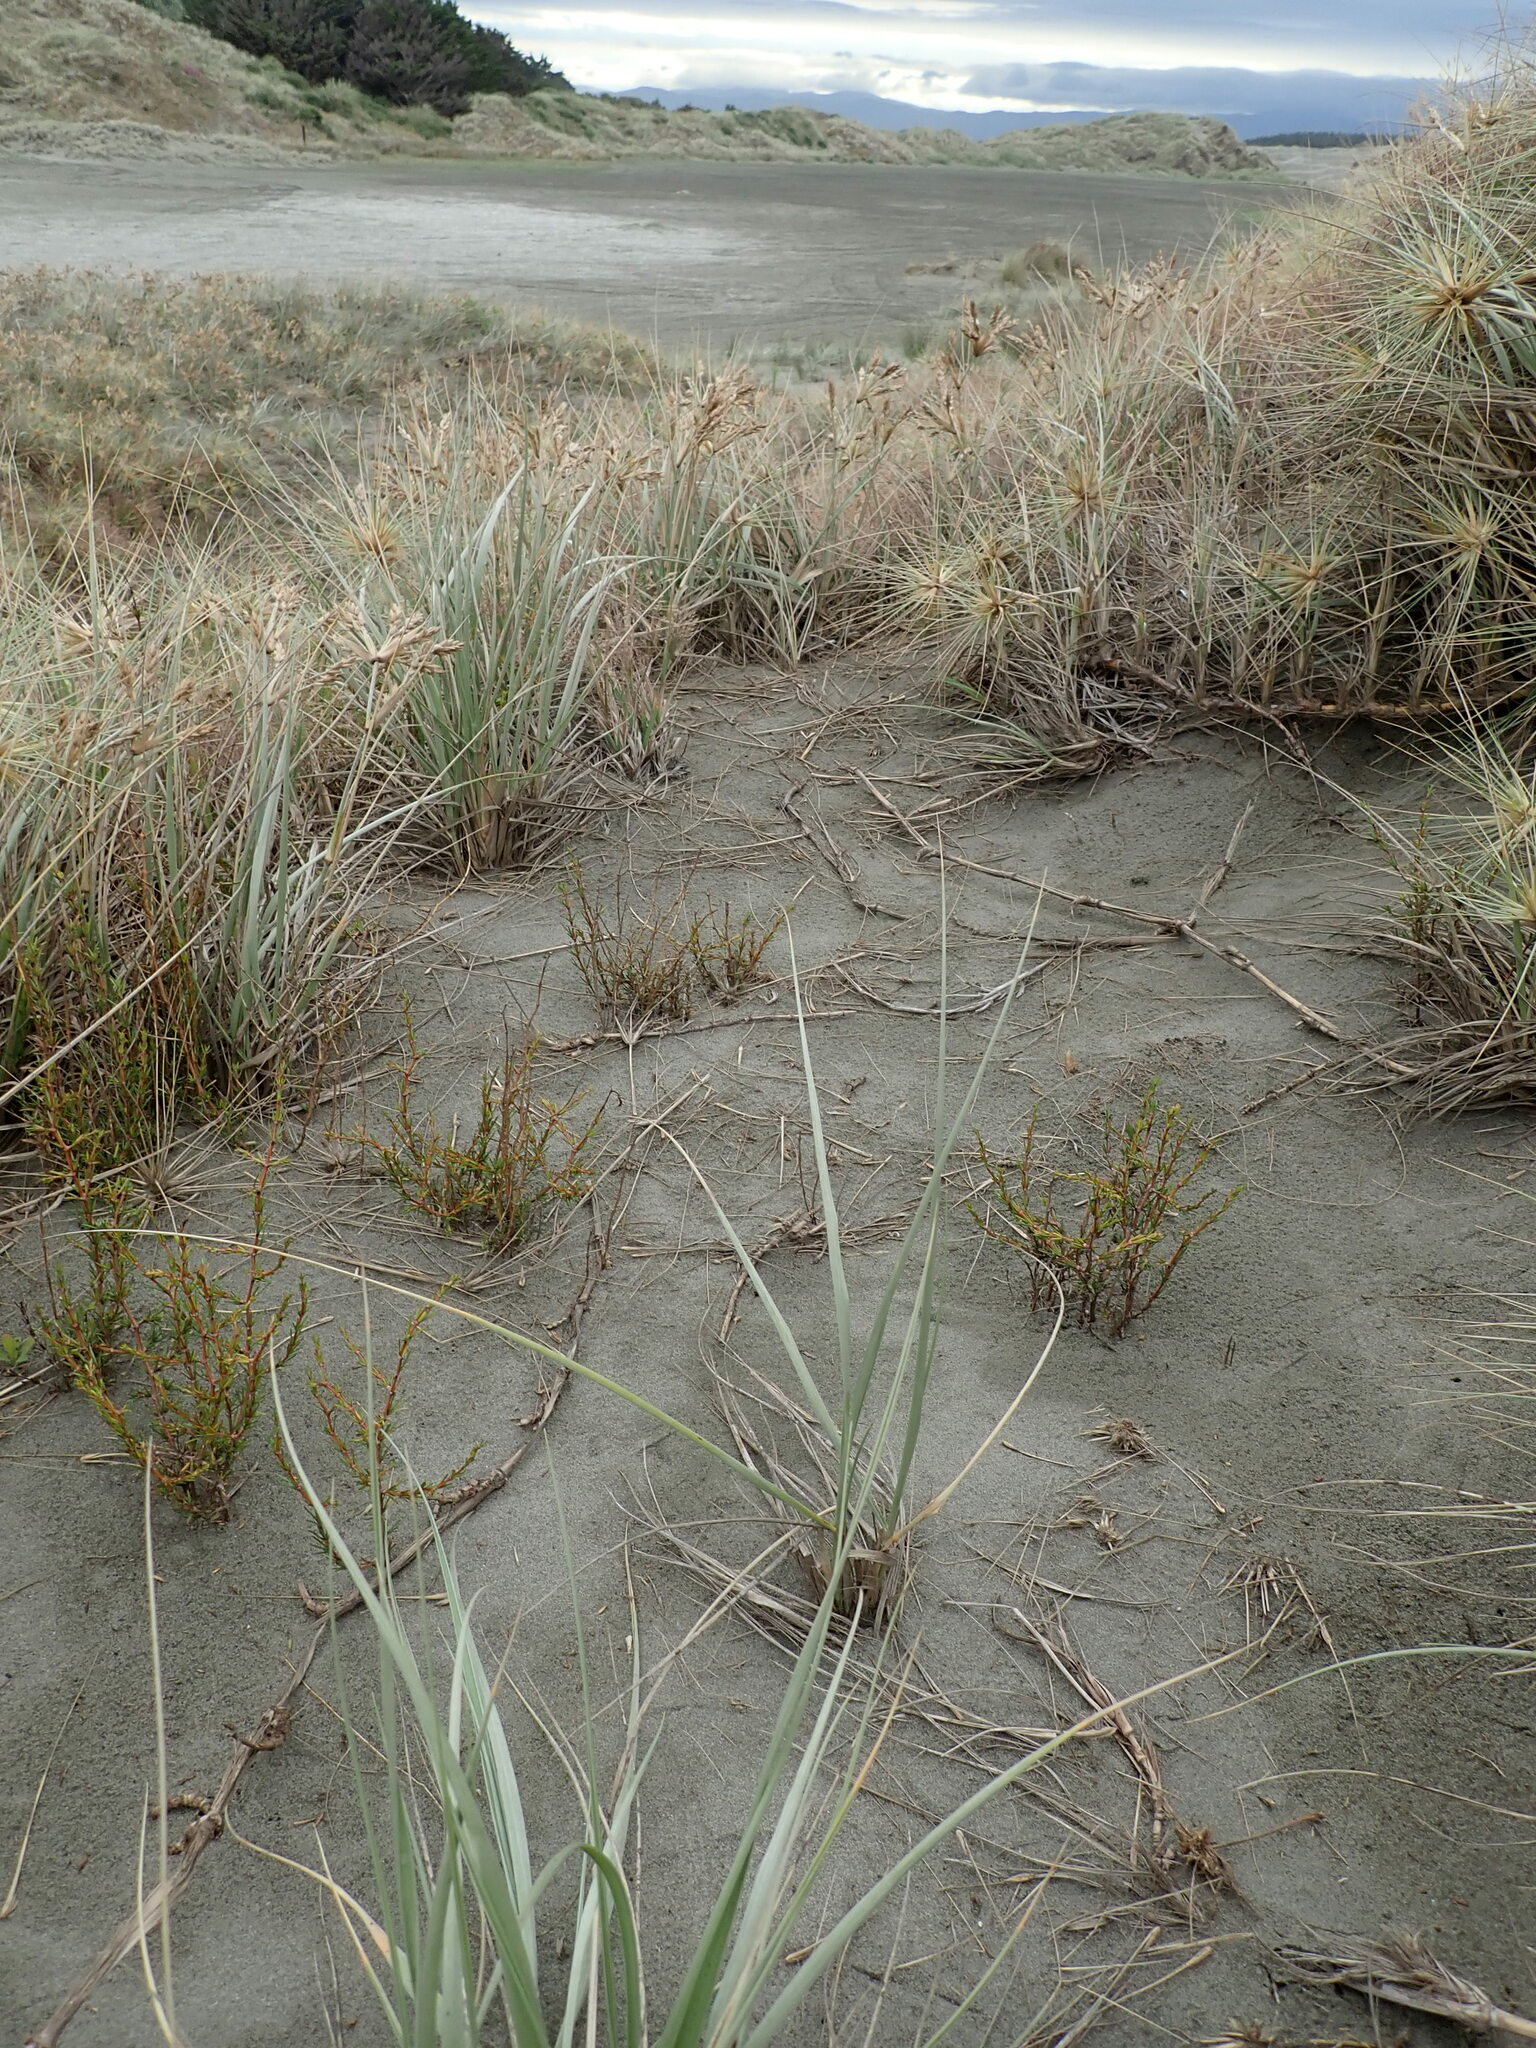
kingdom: Plantae
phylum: Tracheophyta
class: Magnoliopsida
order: Gentianales
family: Rubiaceae
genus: Coprosma
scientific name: Coprosma acerosa
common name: Sand coprosma
